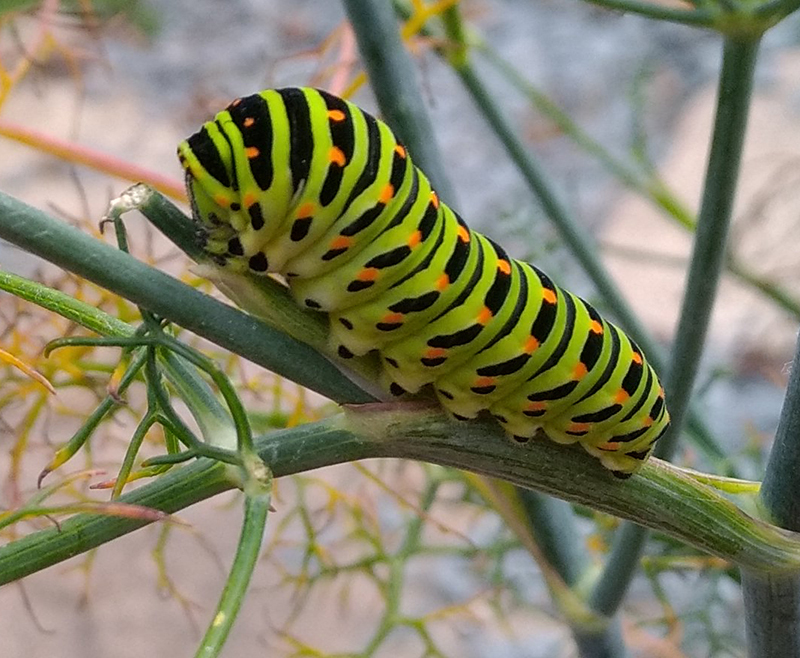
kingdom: Animalia
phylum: Arthropoda
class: Insecta
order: Lepidoptera
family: Papilionidae
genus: Papilio
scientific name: Papilio machaon
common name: Swallowtail
